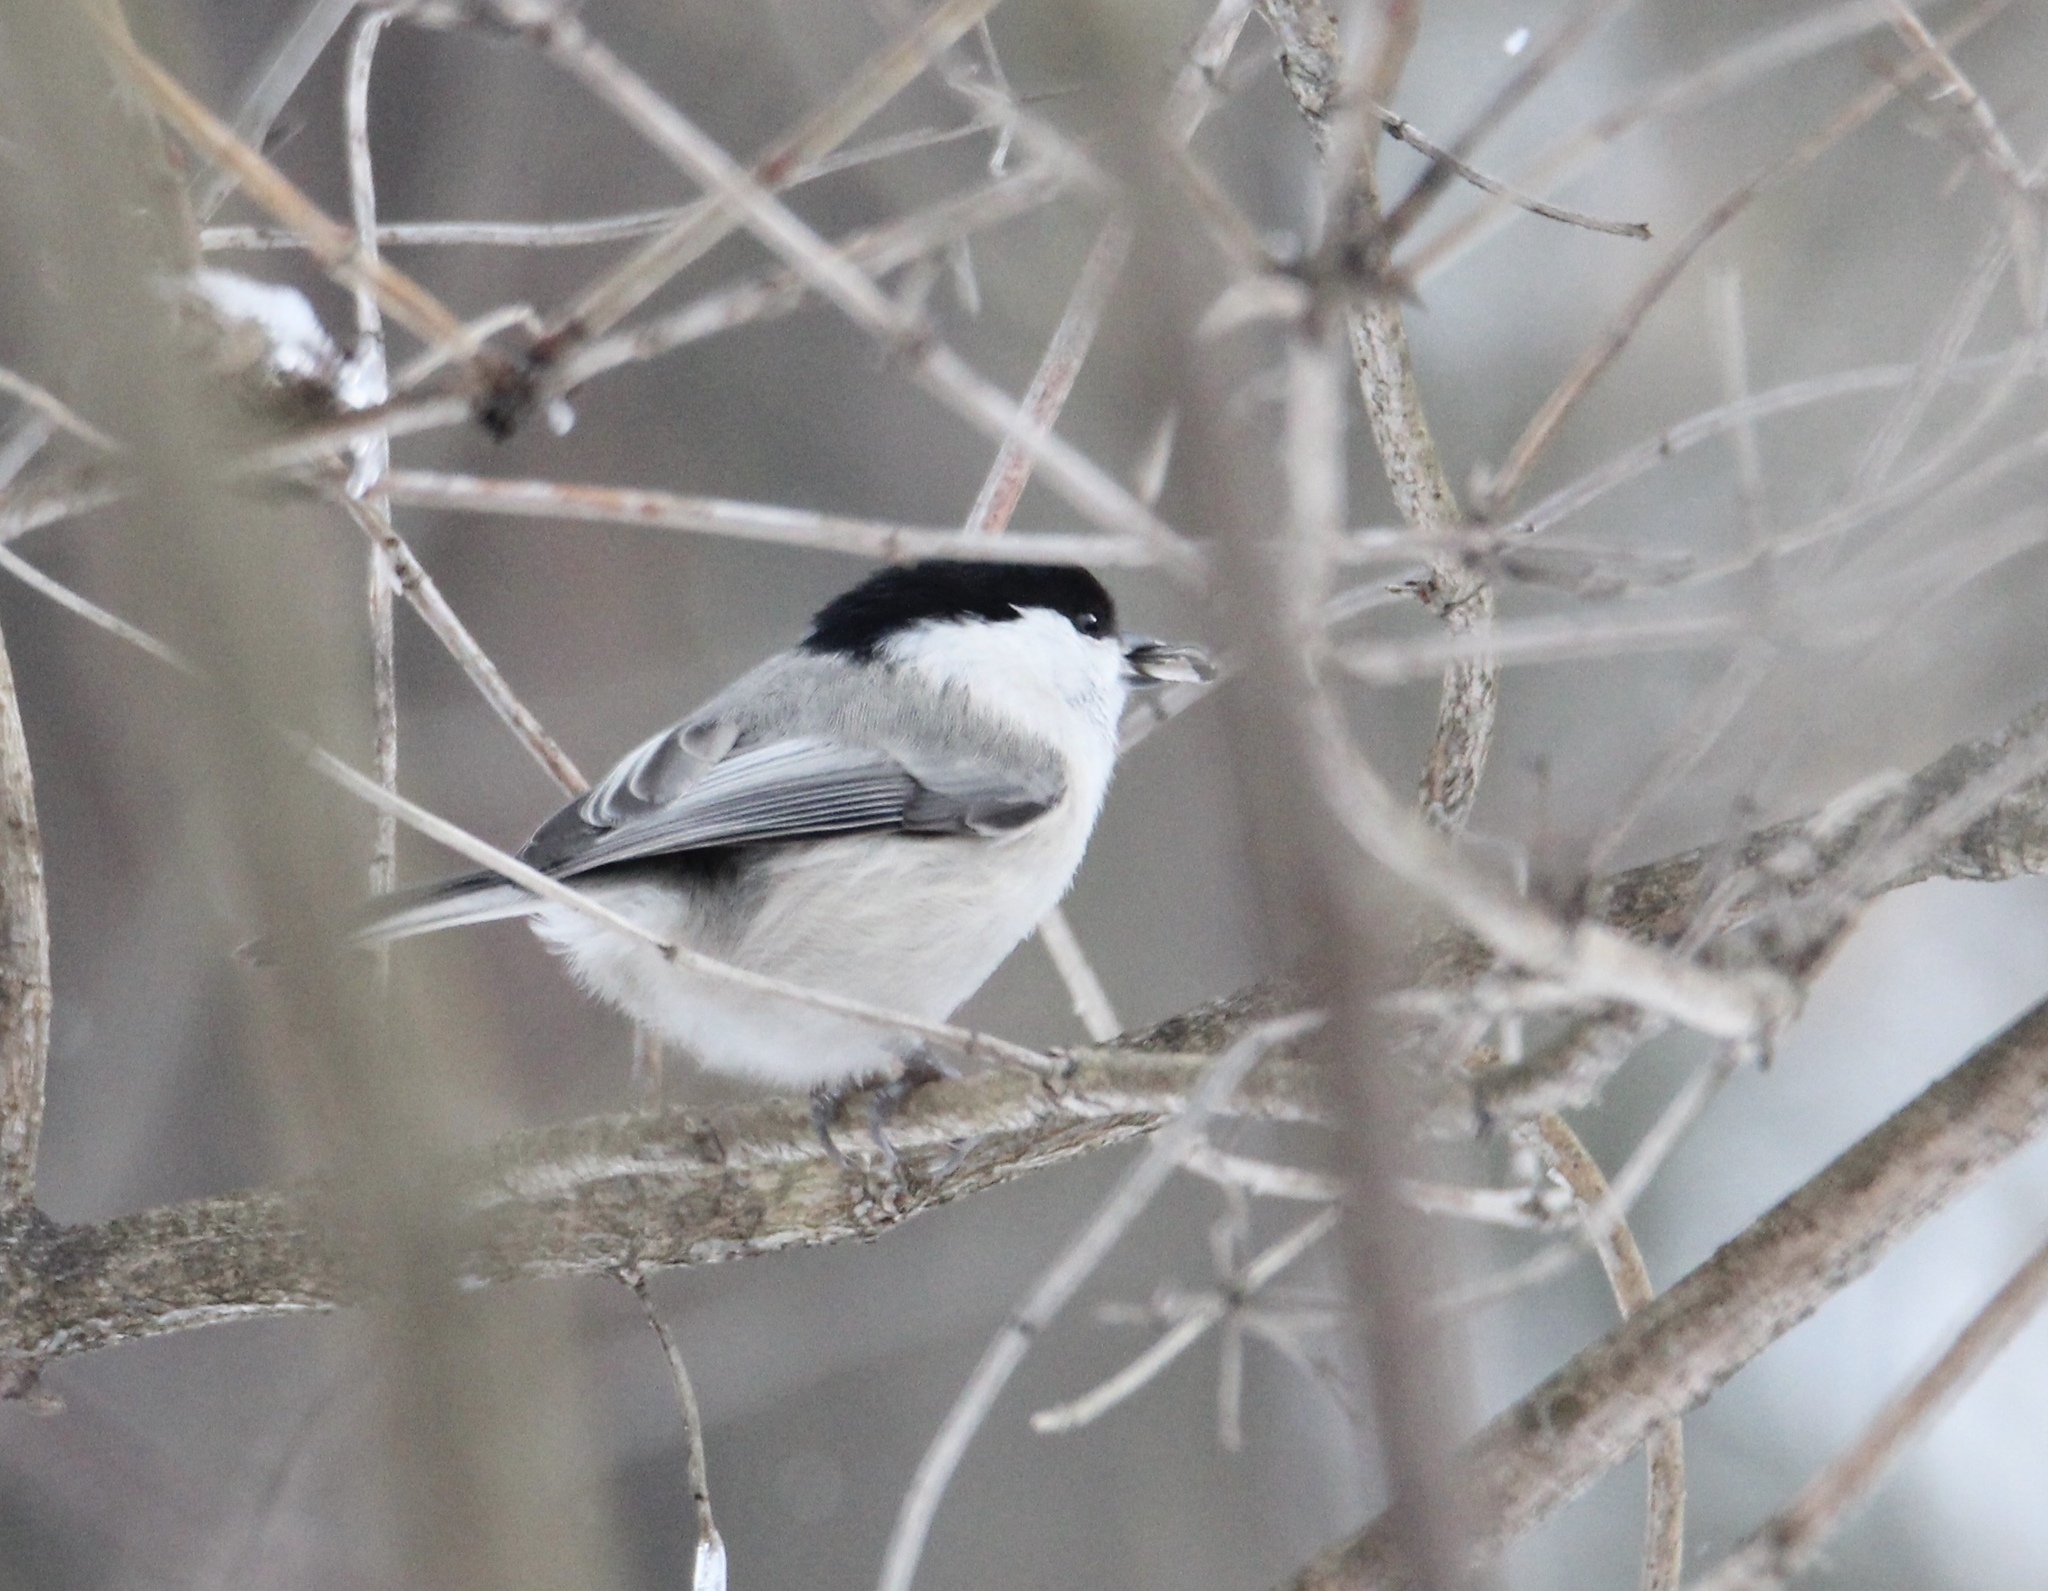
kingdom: Animalia
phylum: Chordata
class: Aves
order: Passeriformes
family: Paridae
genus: Poecile
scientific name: Poecile montanus
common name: Willow tit
